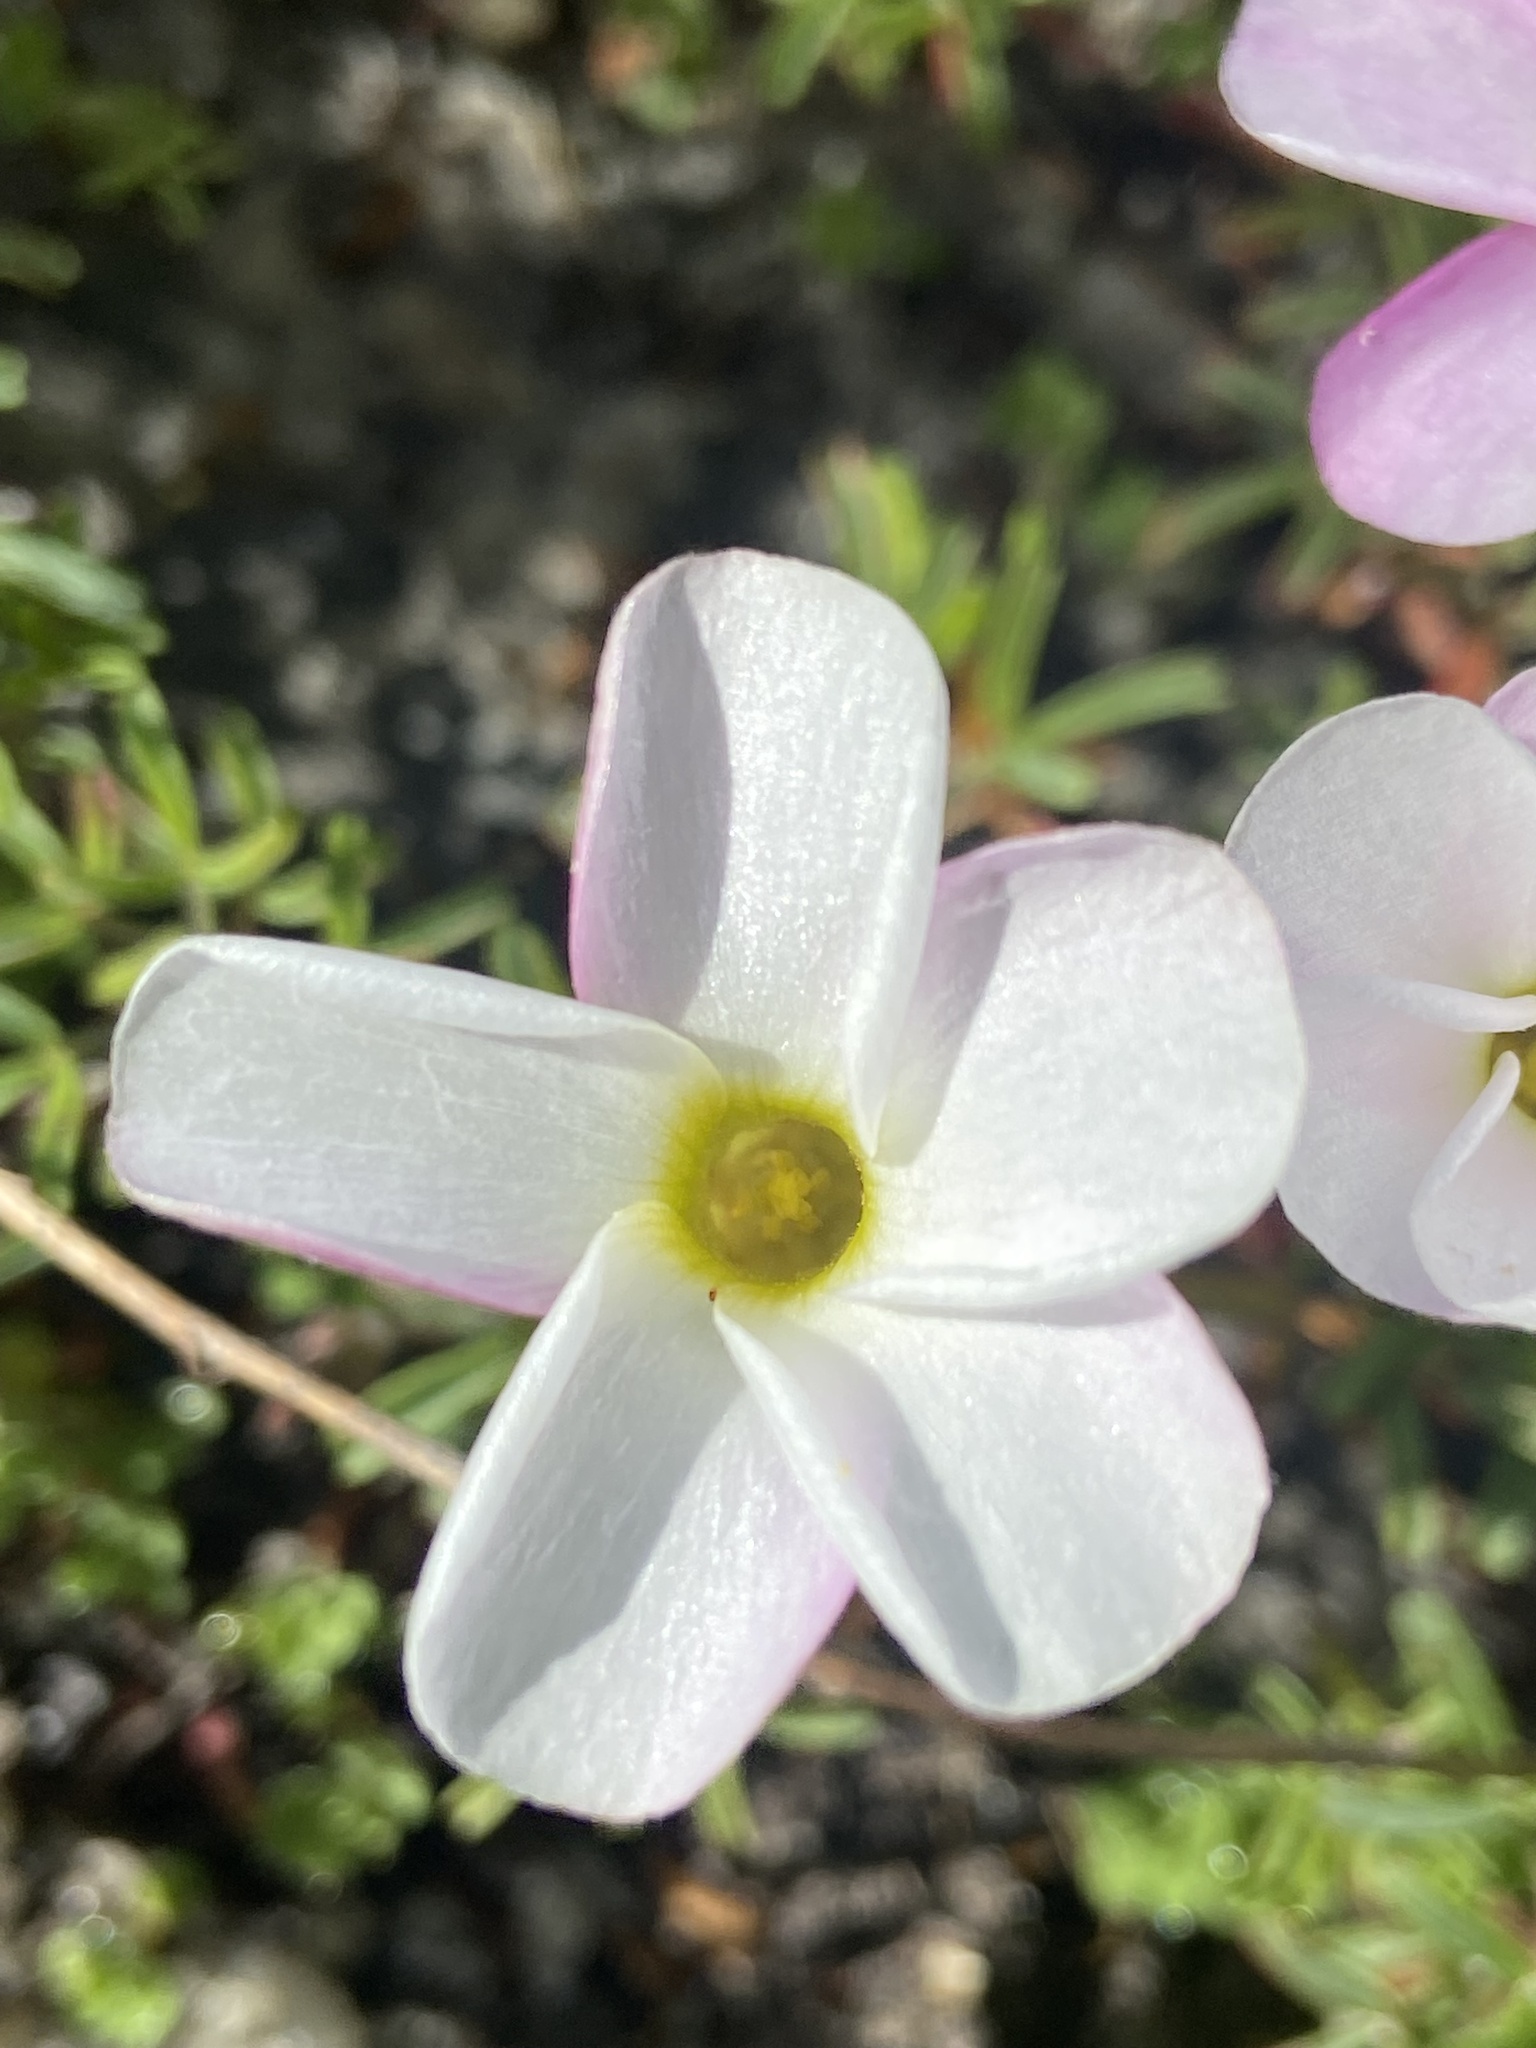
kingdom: Plantae
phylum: Tracheophyta
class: Magnoliopsida
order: Oxalidales
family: Oxalidaceae
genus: Oxalis
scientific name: Oxalis pusilla
